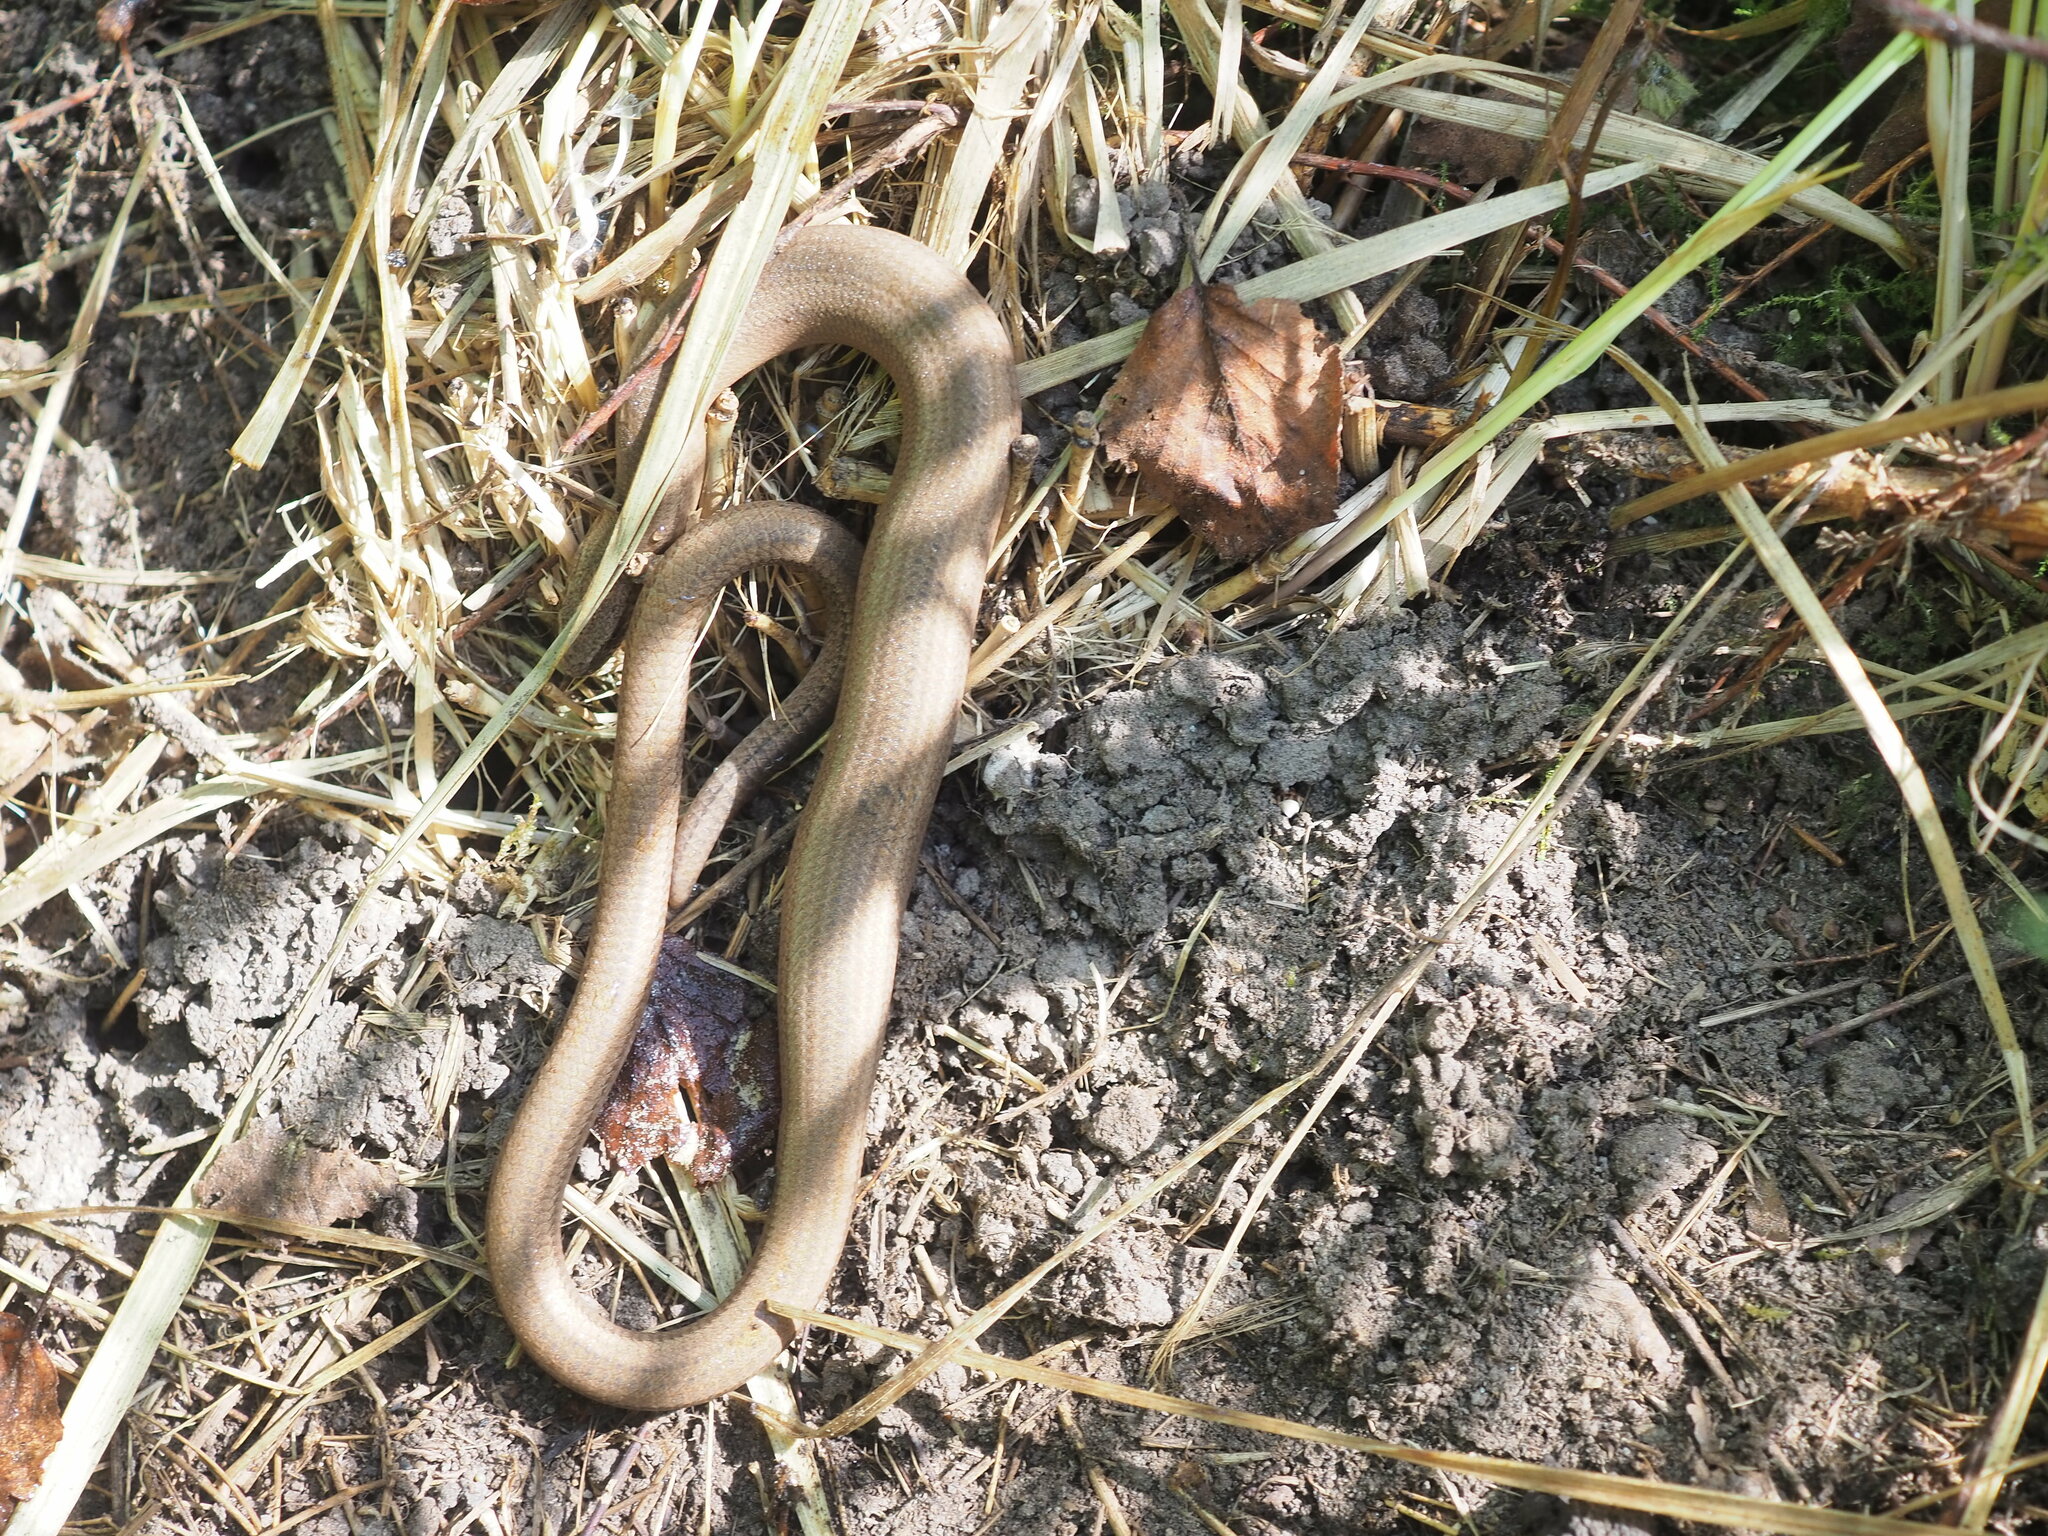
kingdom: Animalia
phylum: Chordata
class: Squamata
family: Anguidae
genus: Anguis
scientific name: Anguis fragilis
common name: Slow worm
